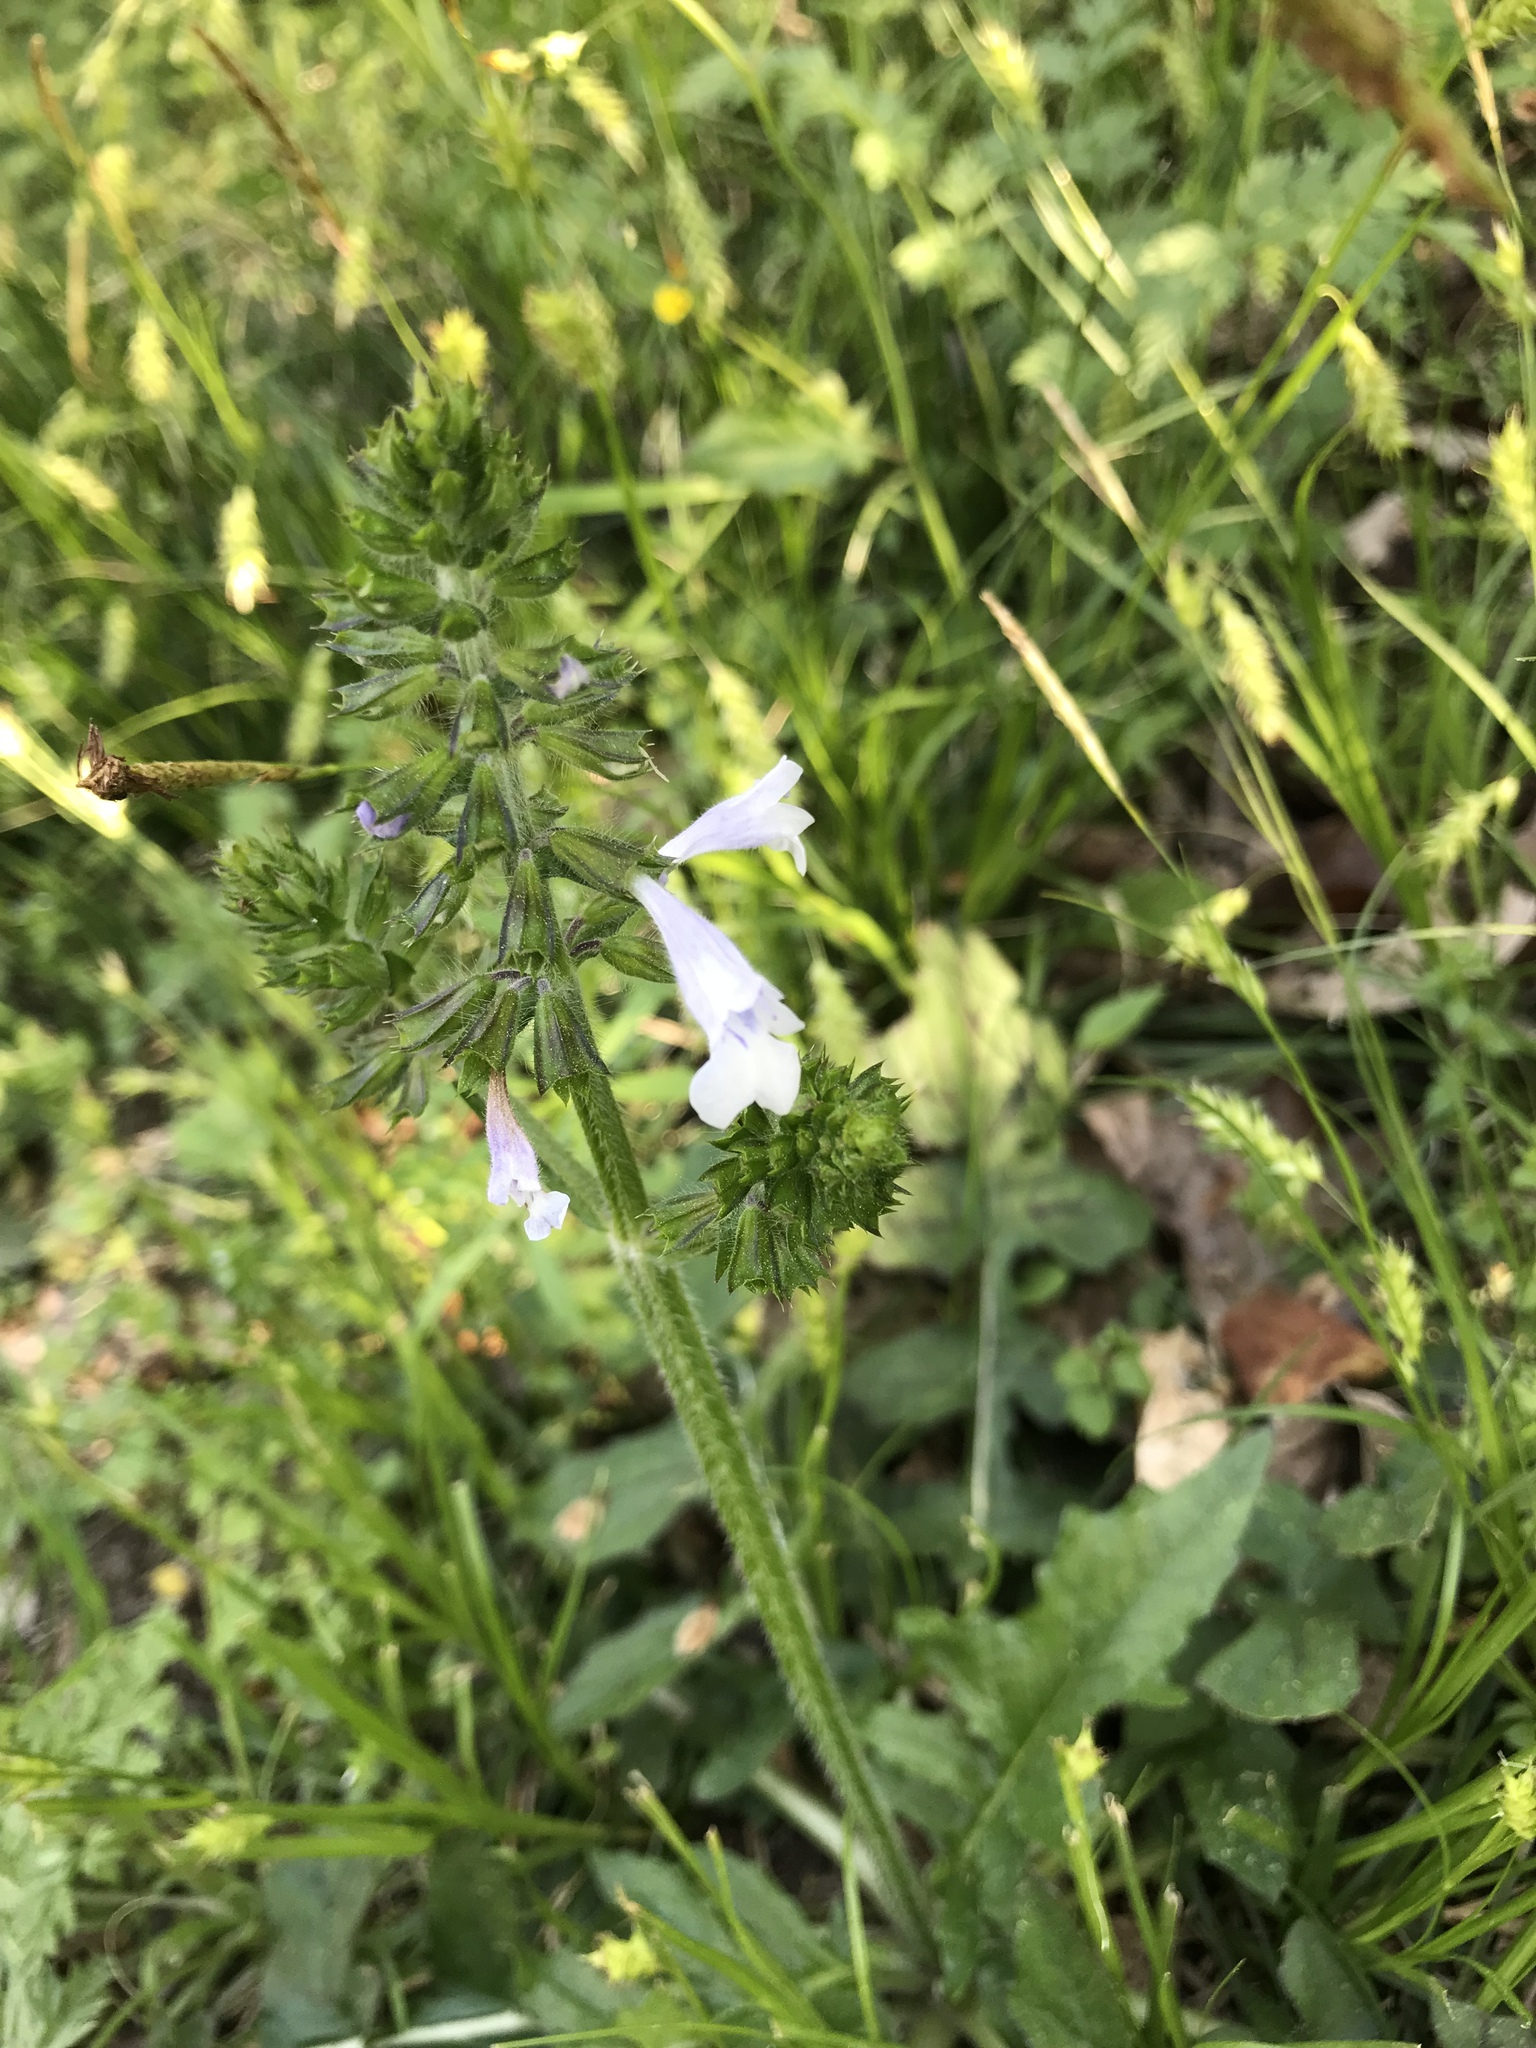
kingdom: Plantae
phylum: Tracheophyta
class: Magnoliopsida
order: Lamiales
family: Lamiaceae
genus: Salvia
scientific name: Salvia lyrata
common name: Cancerweed
